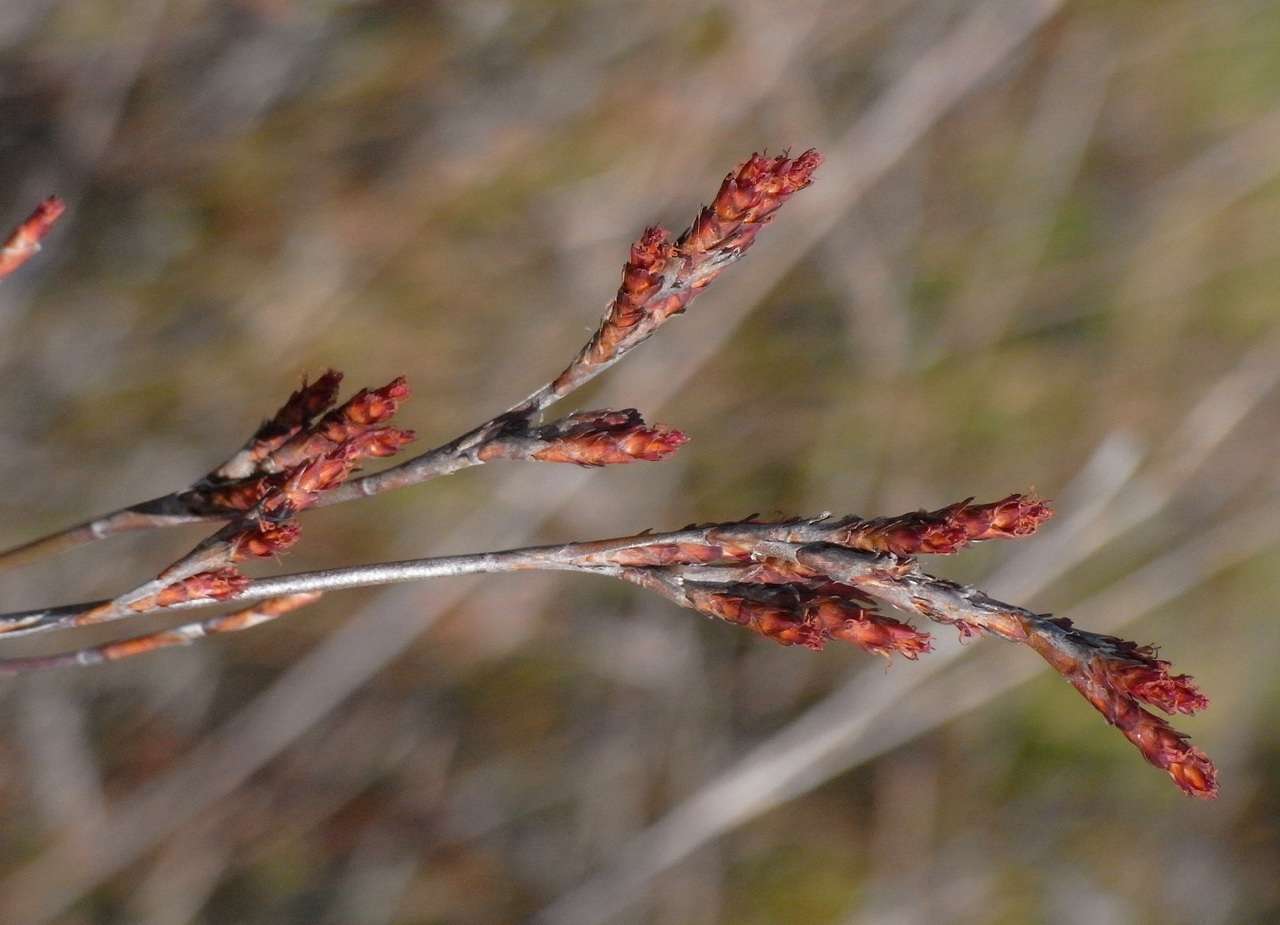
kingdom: Plantae
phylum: Tracheophyta
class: Liliopsida
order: Poales
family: Restionaceae
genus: Leptocarpus
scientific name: Leptocarpus tenax
